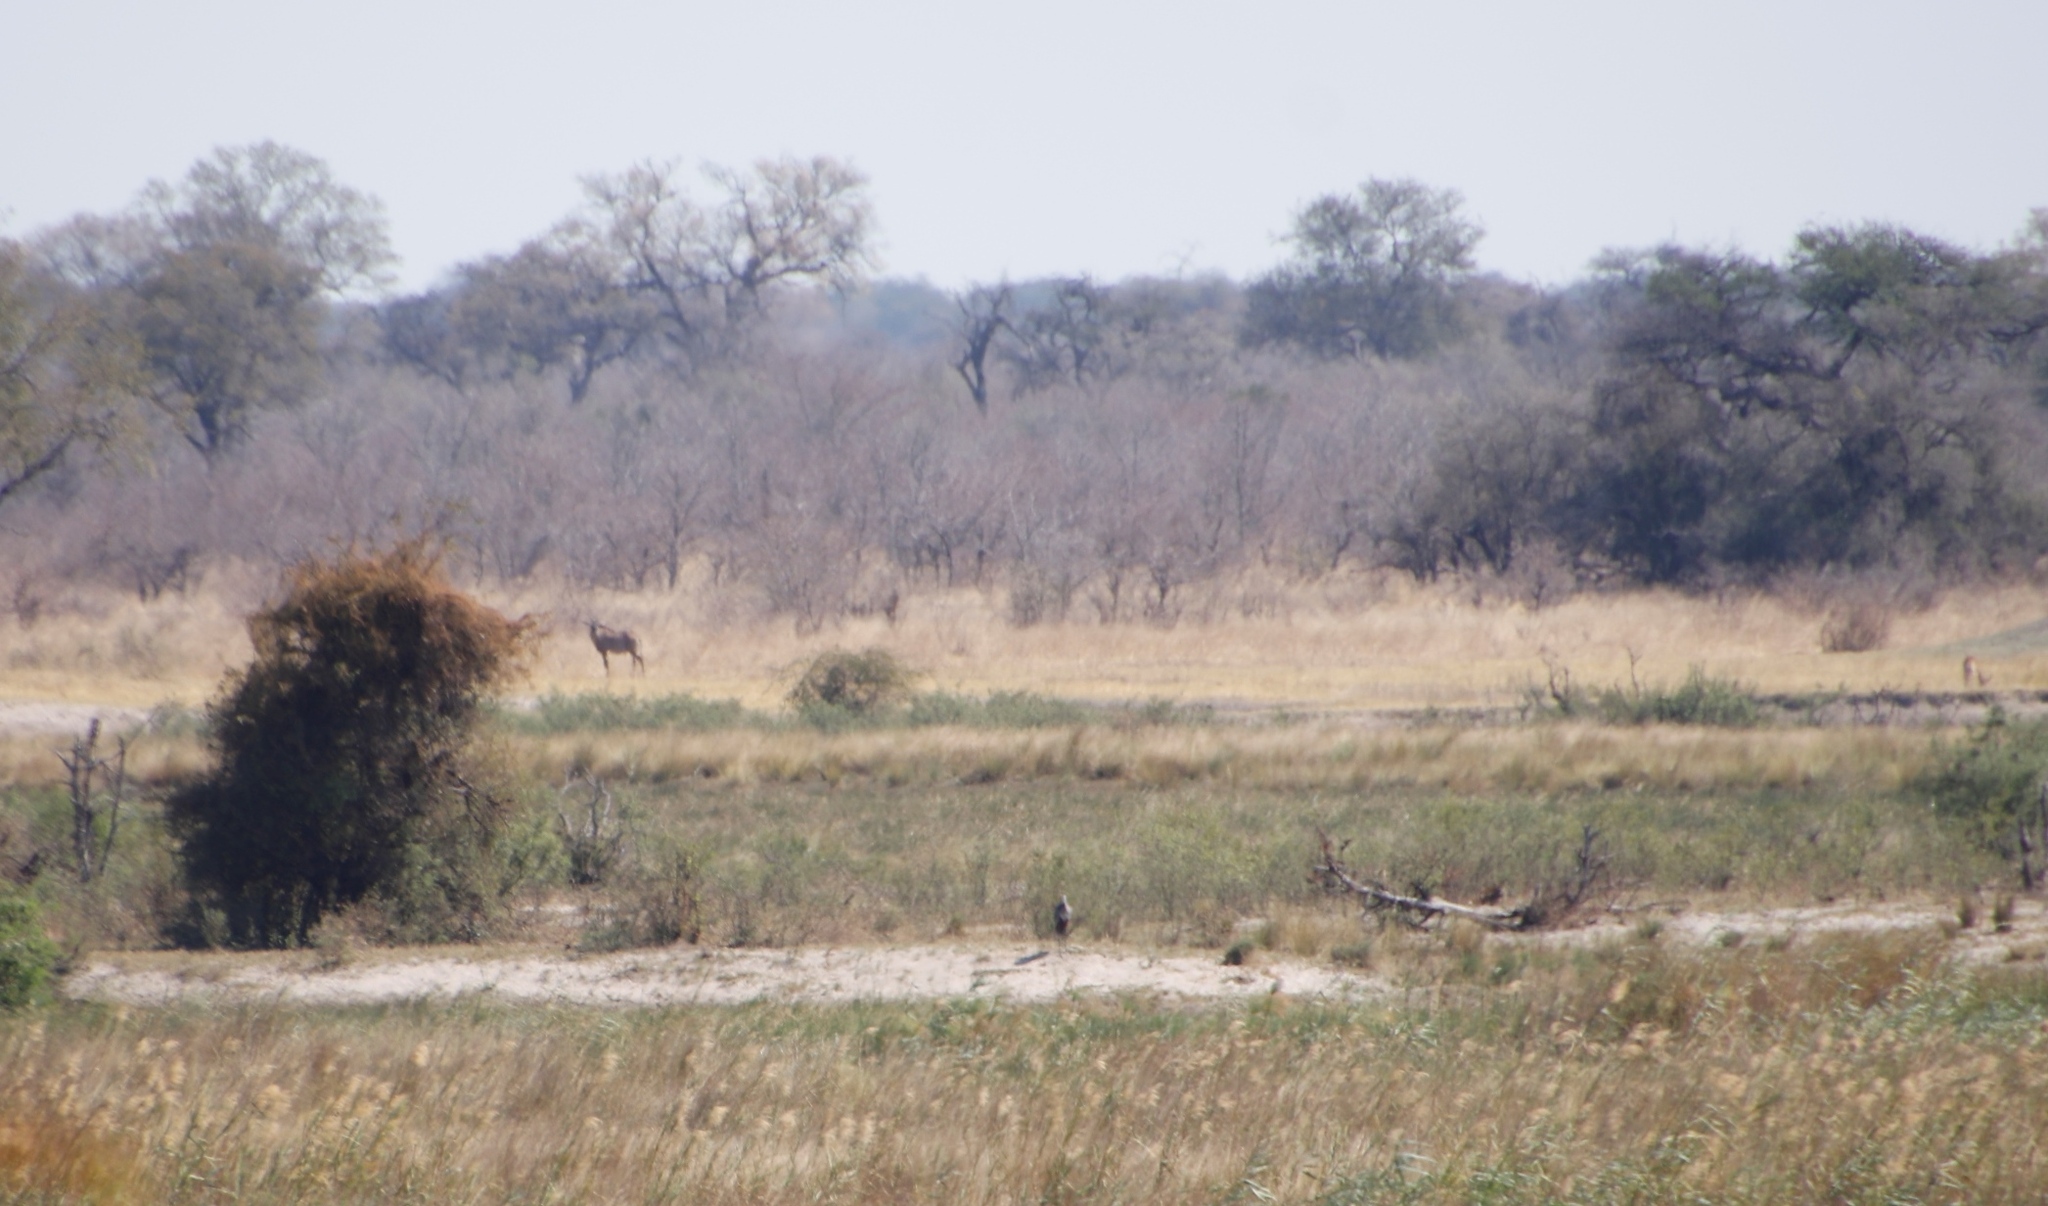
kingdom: Animalia
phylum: Chordata
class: Mammalia
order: Artiodactyla
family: Bovidae
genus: Hippotragus
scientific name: Hippotragus equinus
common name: Roan antelope
